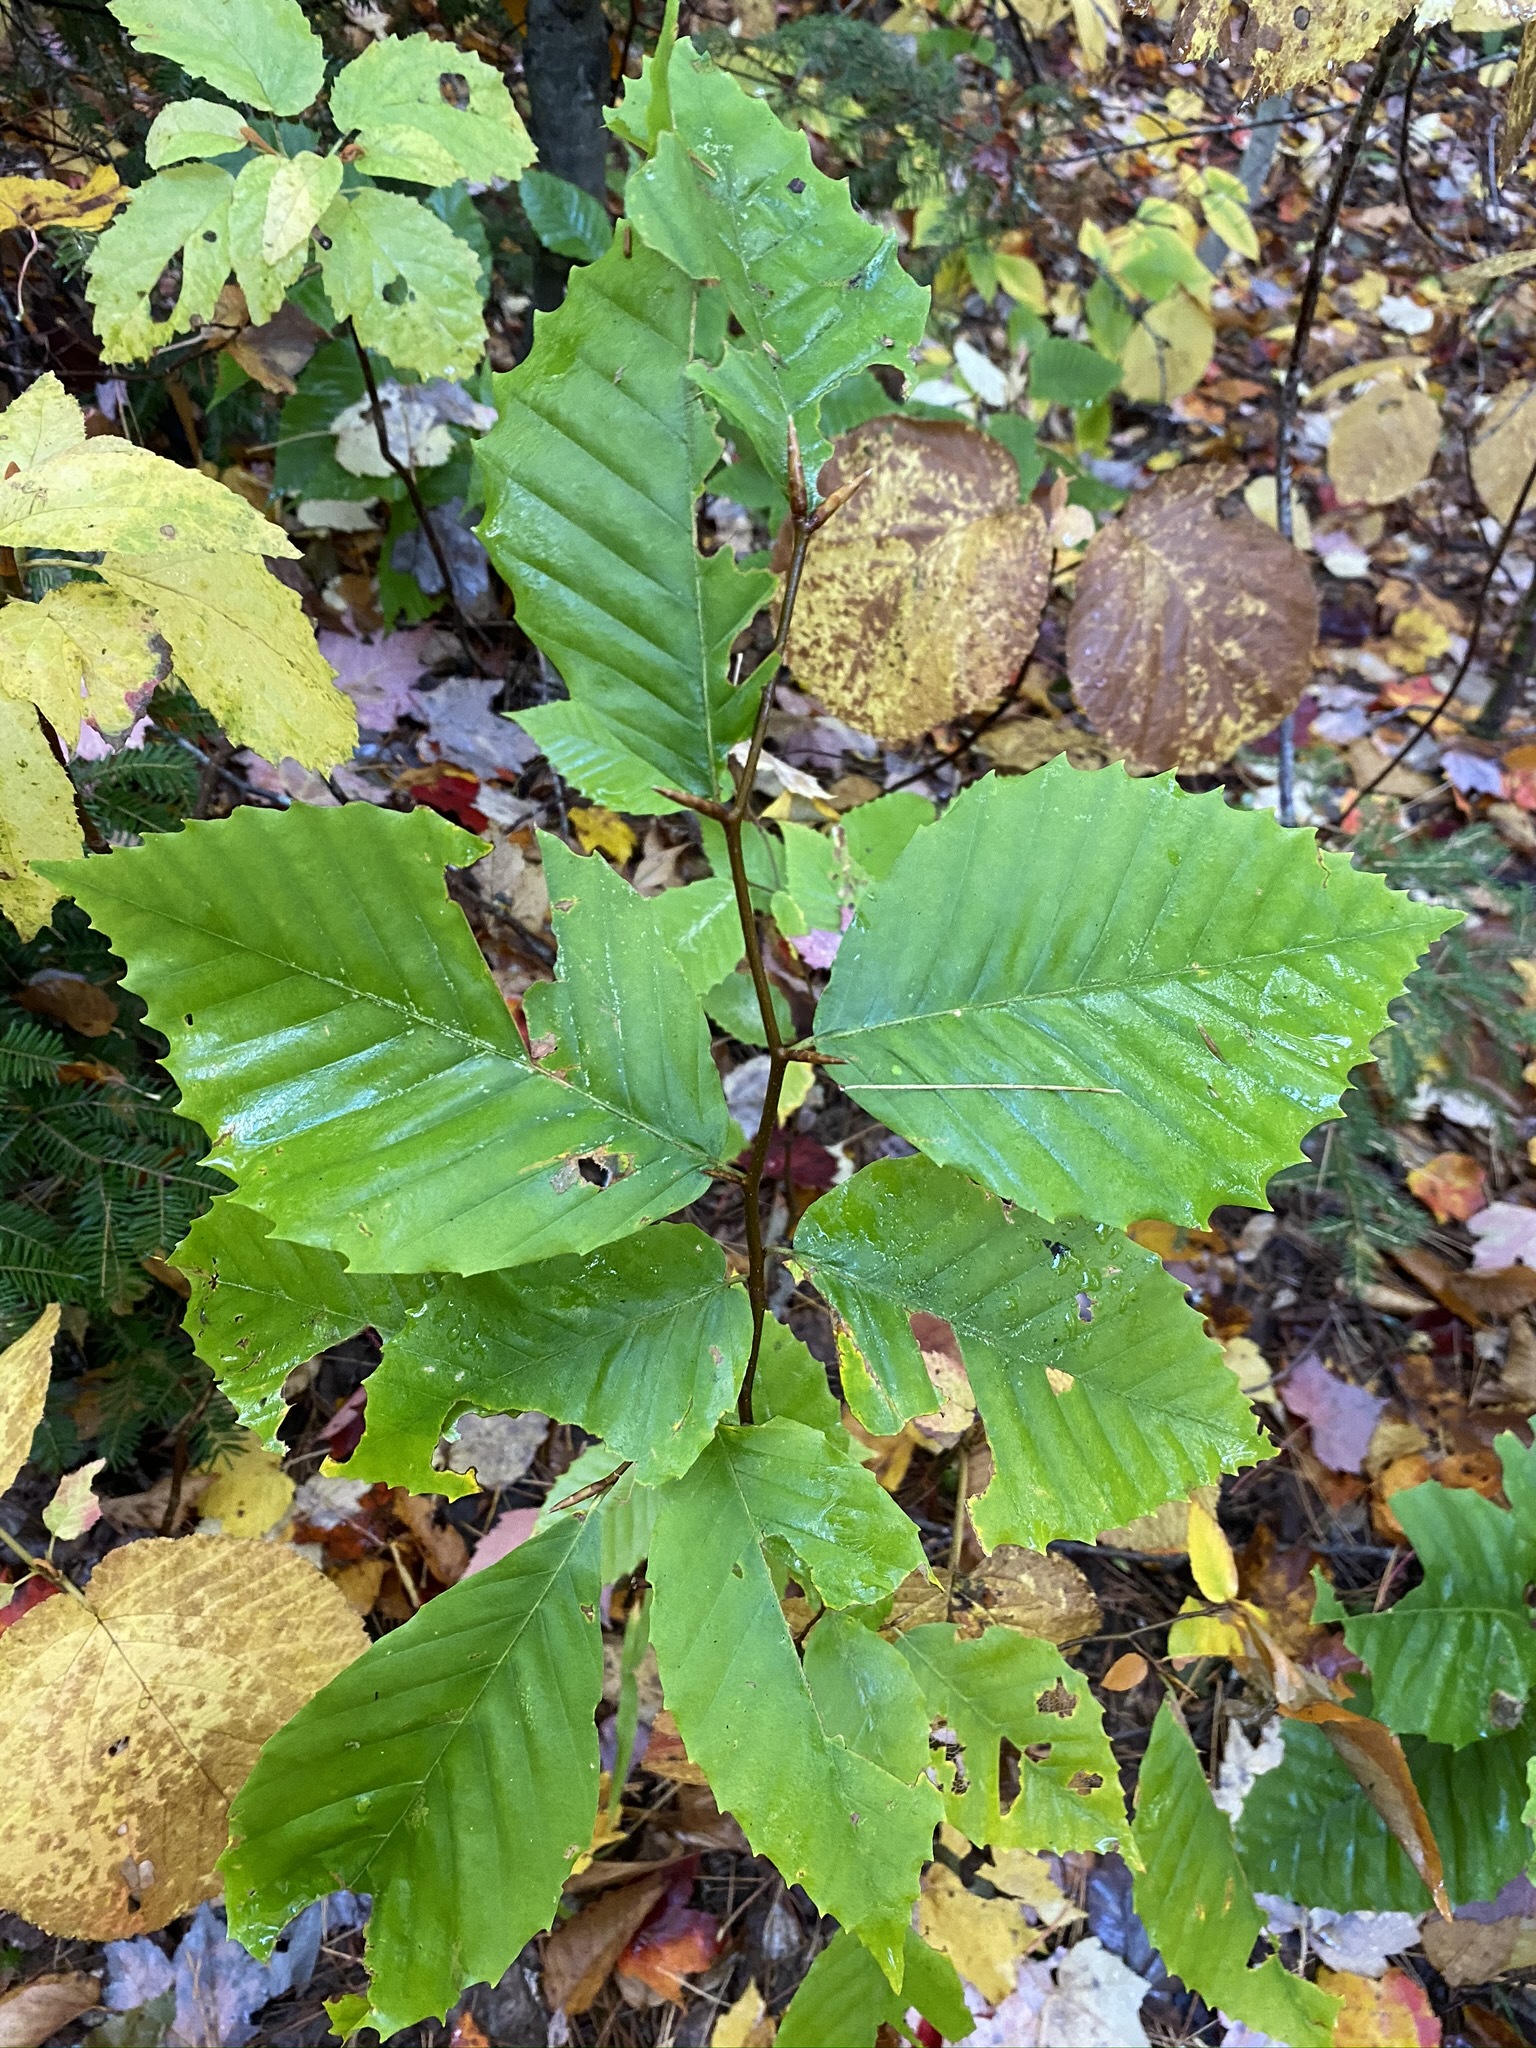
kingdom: Plantae
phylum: Tracheophyta
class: Magnoliopsida
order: Fagales
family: Fagaceae
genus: Fagus
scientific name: Fagus grandifolia
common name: American beech
